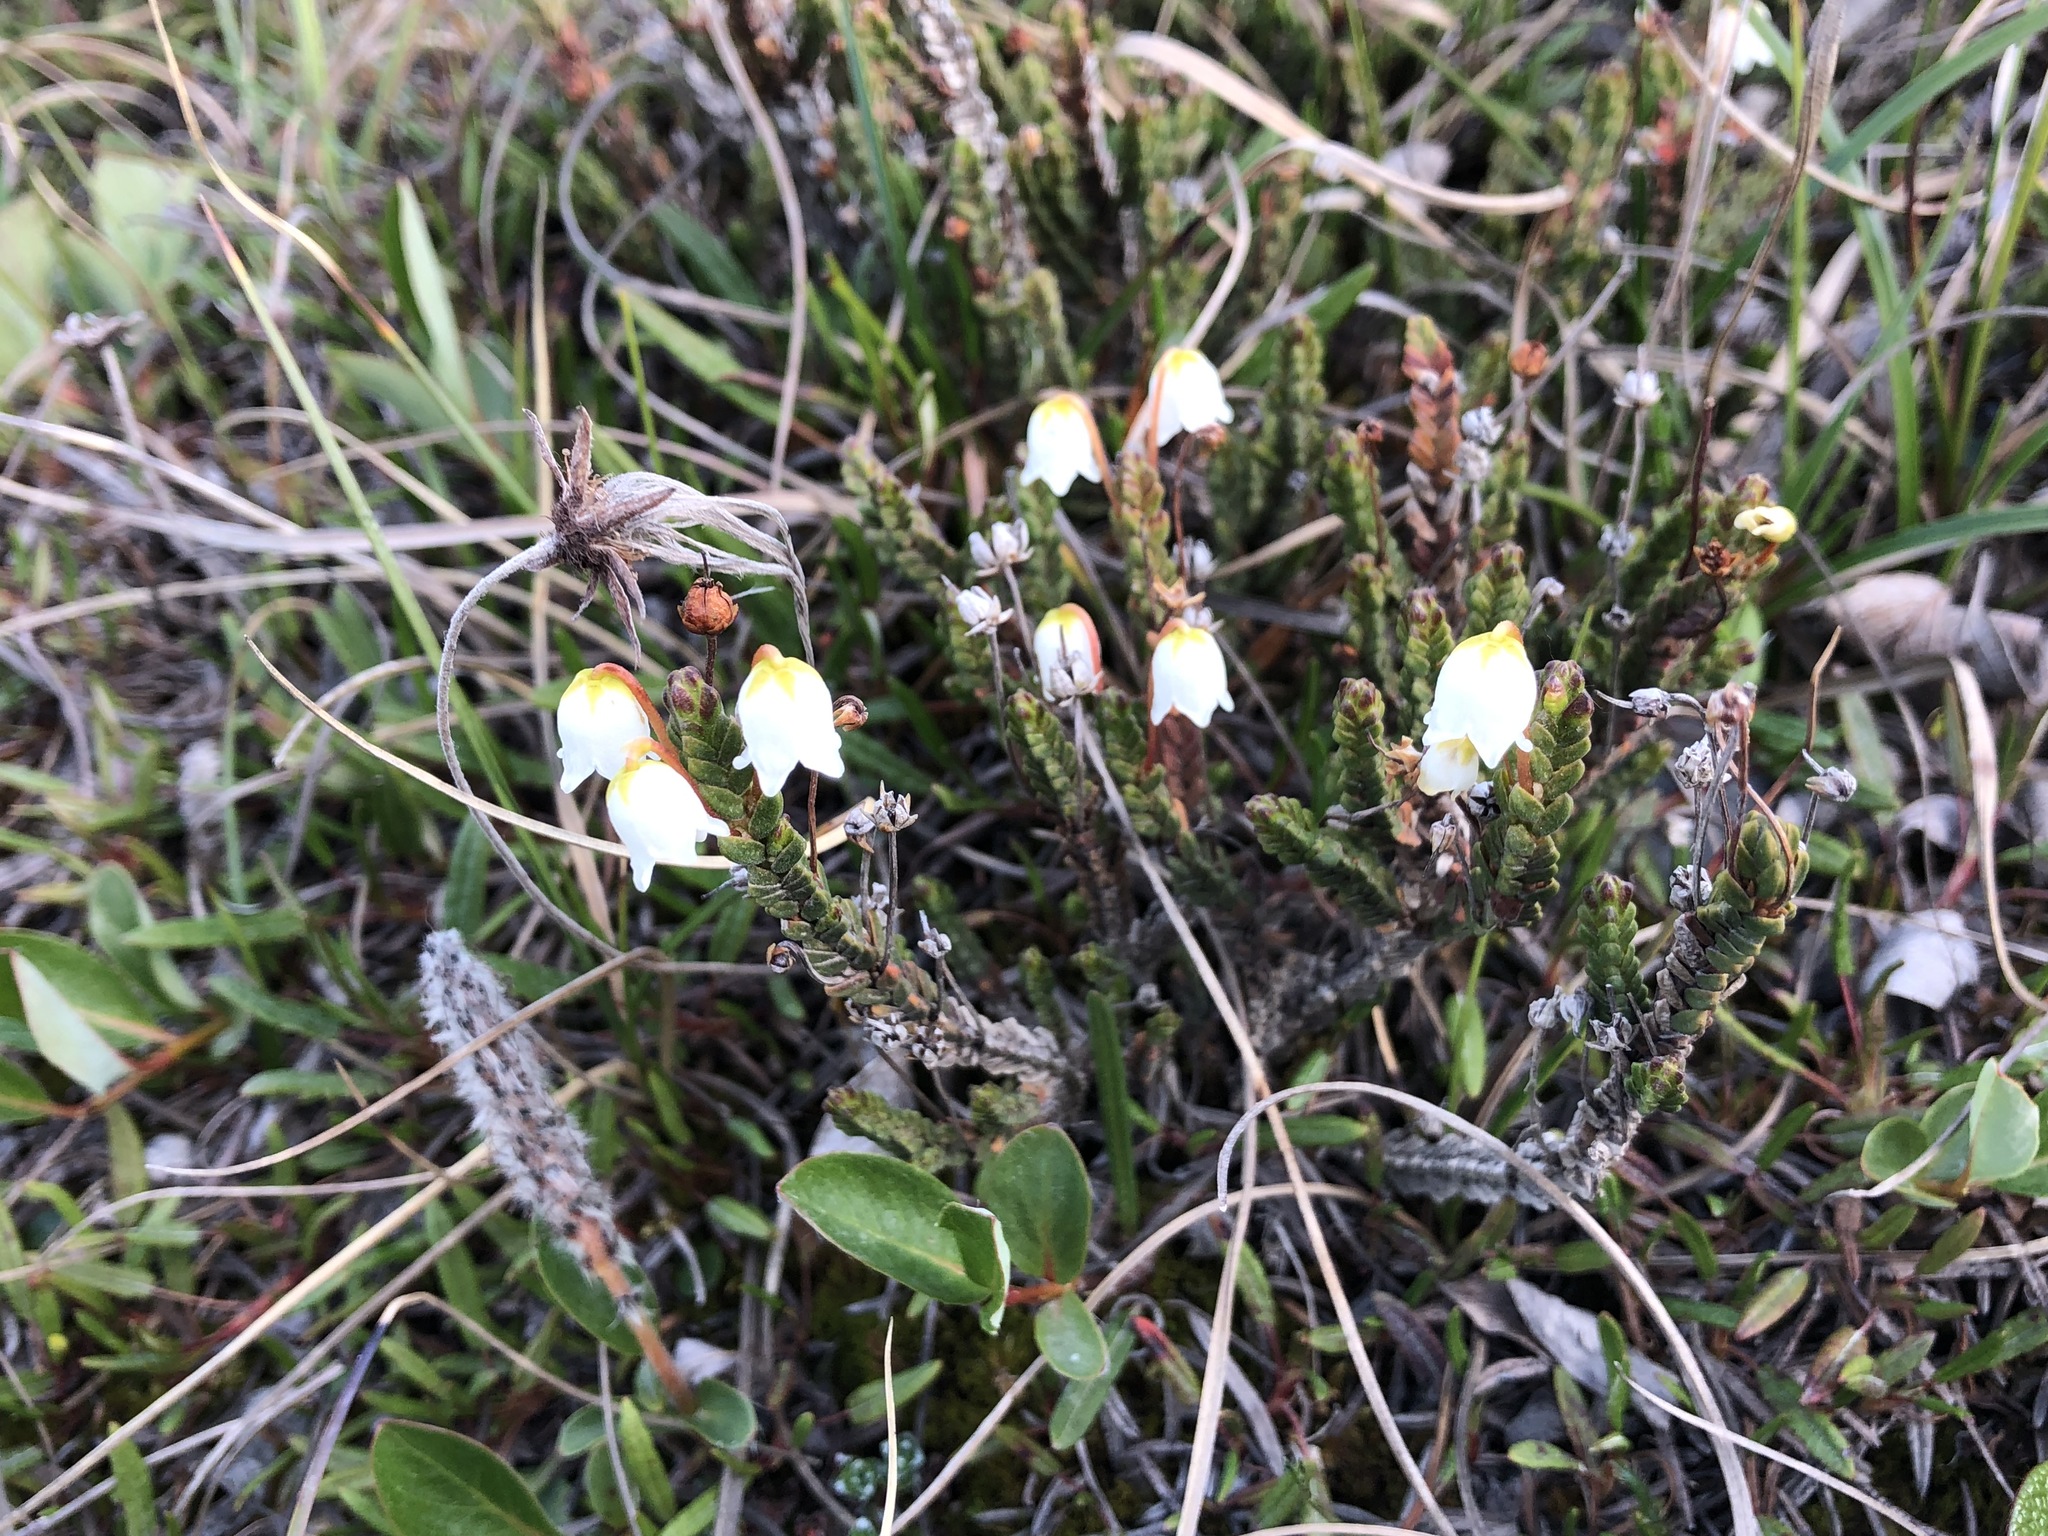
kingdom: Plantae
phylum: Tracheophyta
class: Magnoliopsida
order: Ericales
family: Ericaceae
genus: Cassiope
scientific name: Cassiope tetragona
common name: Arctic bell heather
